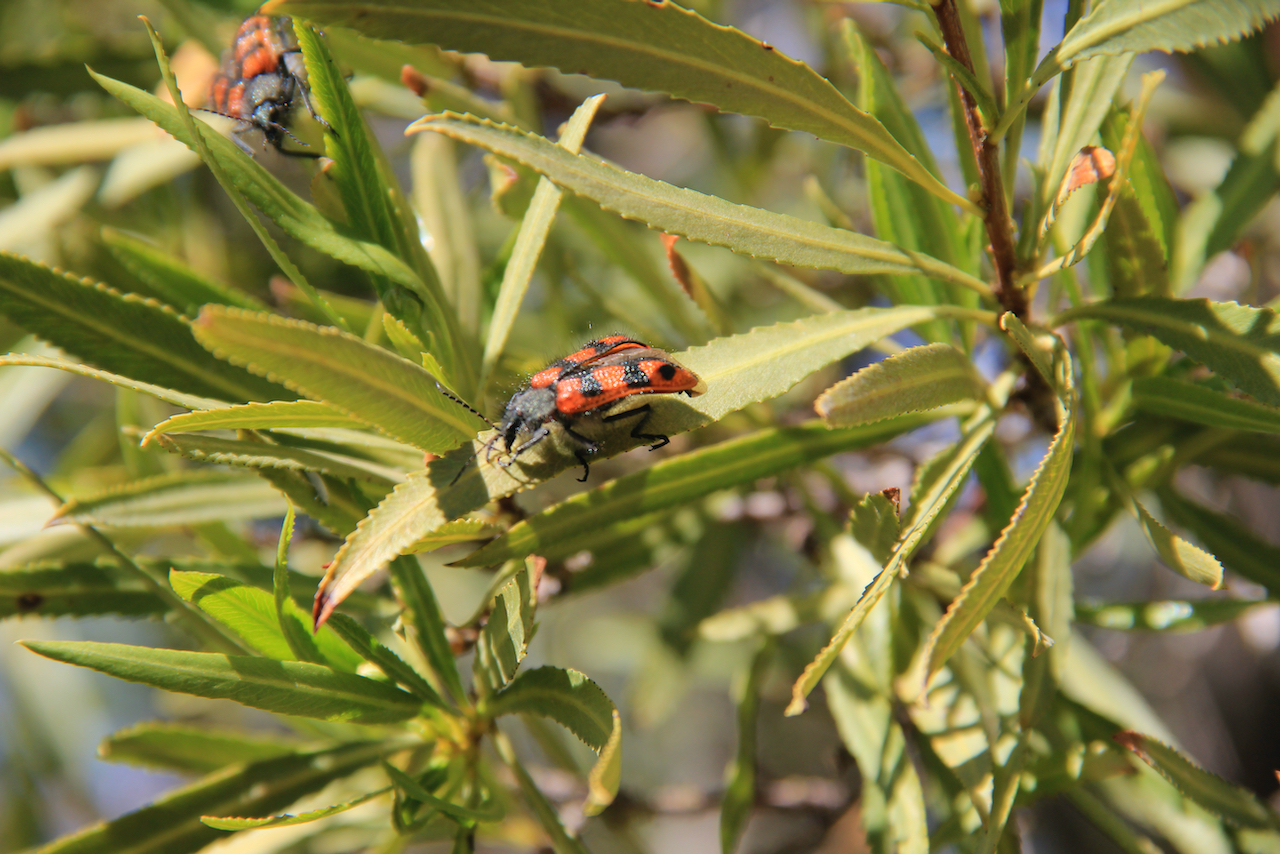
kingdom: Animalia
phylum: Arthropoda
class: Insecta
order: Coleoptera
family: Melyridae
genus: Astylus
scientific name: Astylus
